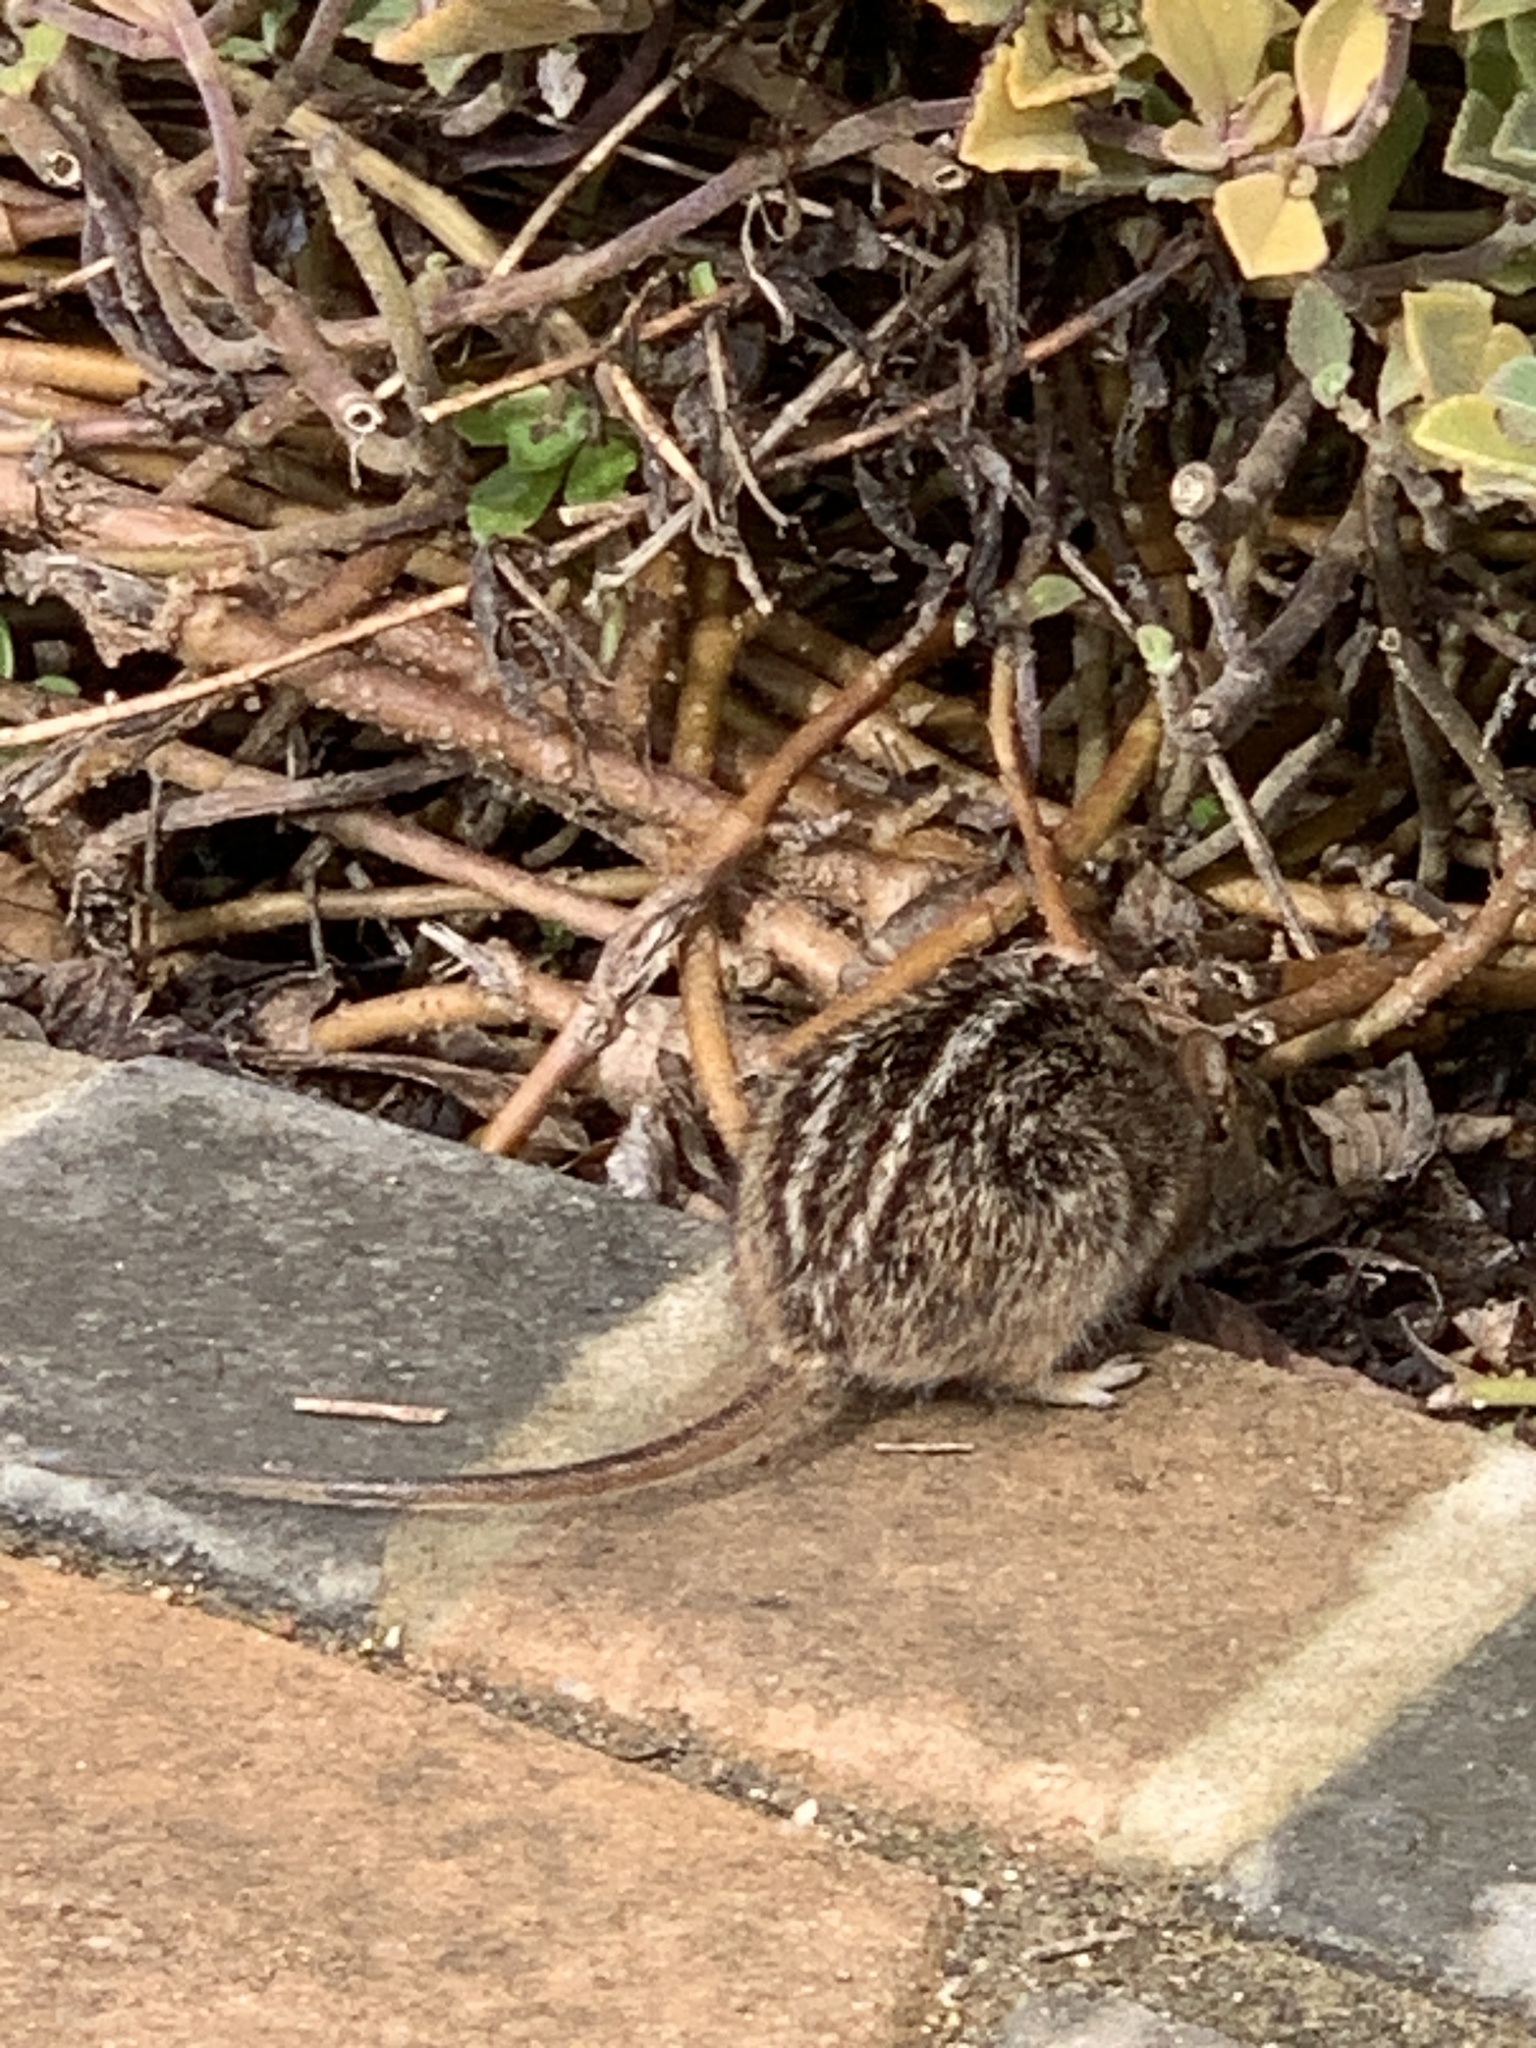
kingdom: Animalia
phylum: Chordata
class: Mammalia
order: Rodentia
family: Muridae
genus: Rhabdomys
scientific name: Rhabdomys pumilio
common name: Xeric four-striped grass rat
